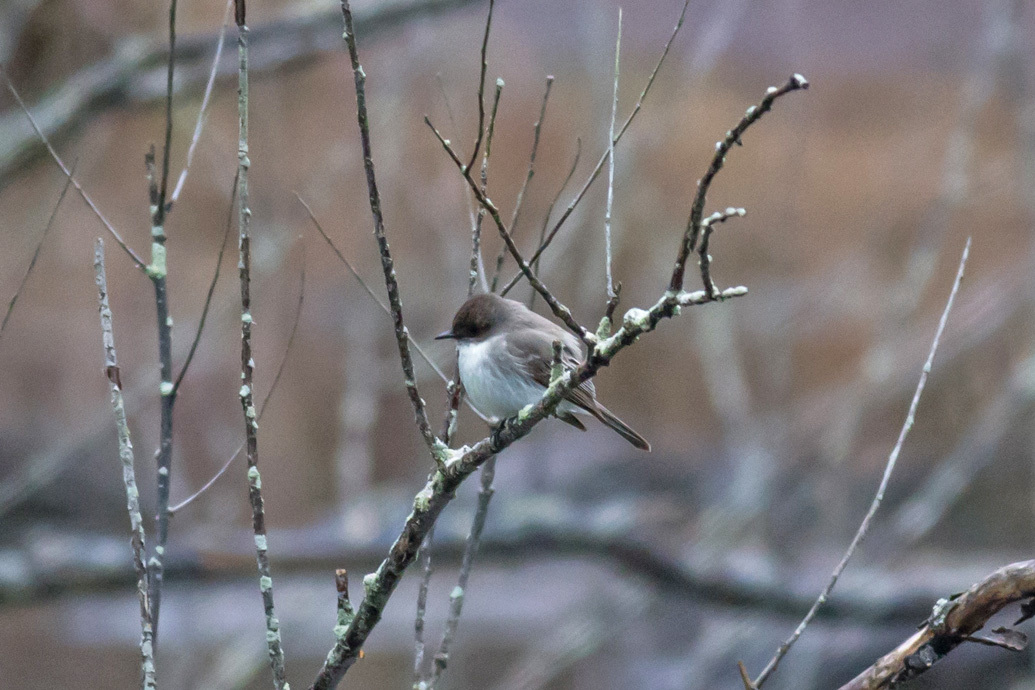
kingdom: Animalia
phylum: Chordata
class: Aves
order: Passeriformes
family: Tyrannidae
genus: Sayornis
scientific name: Sayornis phoebe
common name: Eastern phoebe
